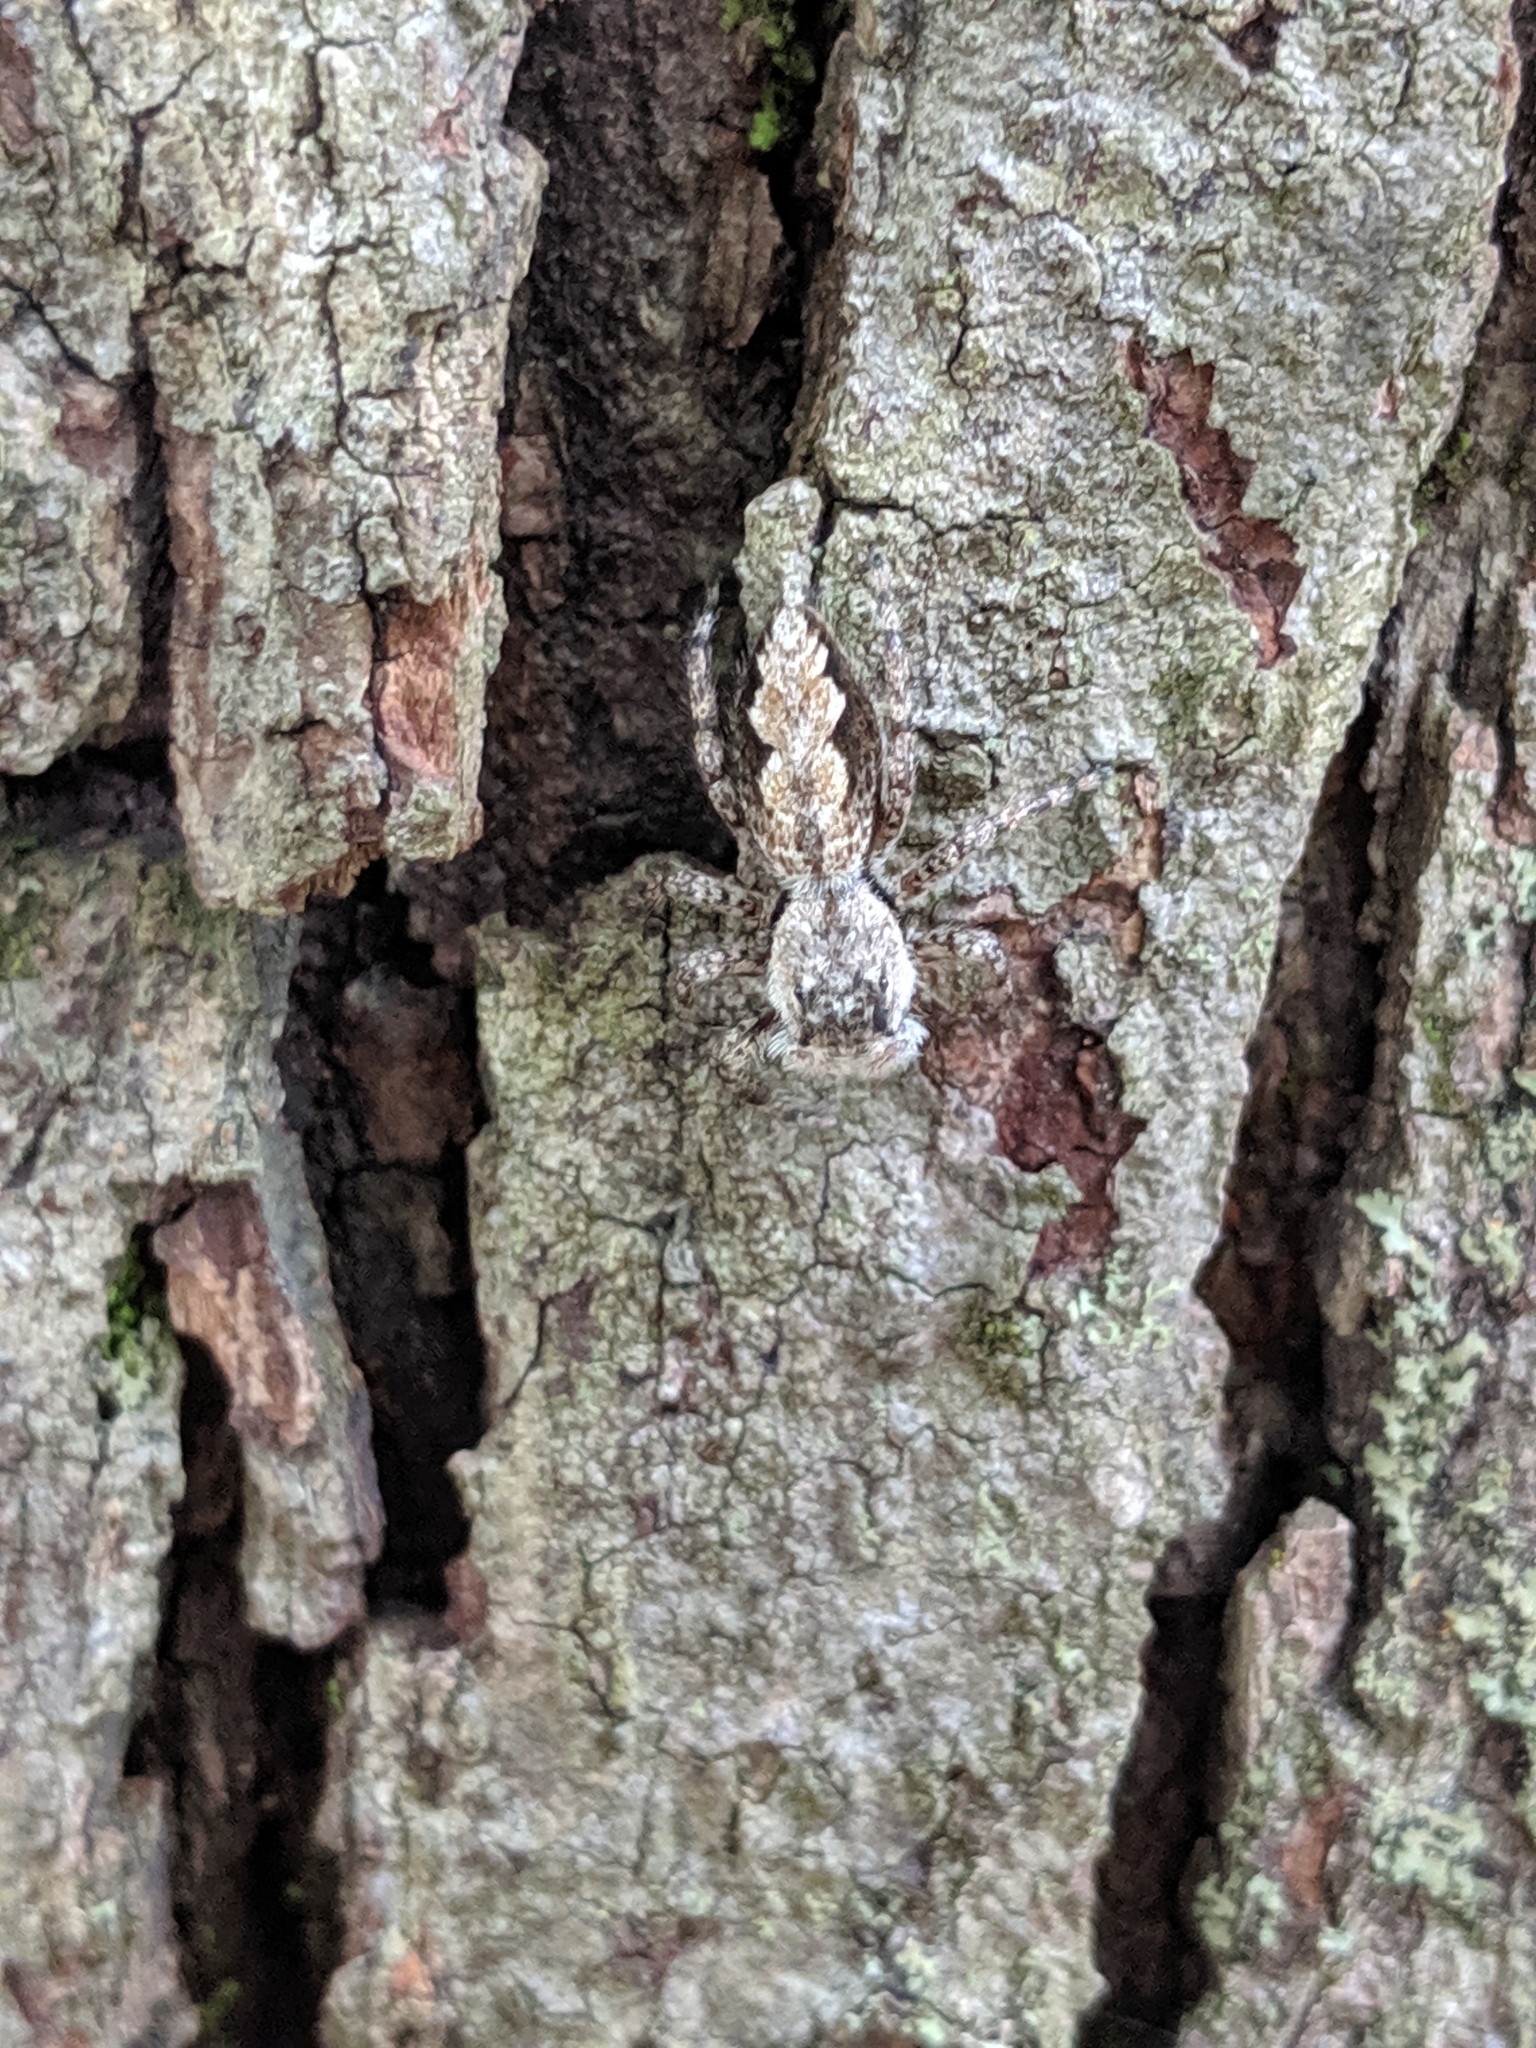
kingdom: Animalia
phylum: Arthropoda
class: Arachnida
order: Araneae
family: Salticidae
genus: Platycryptus
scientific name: Platycryptus undatus
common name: Tan jumping spider
